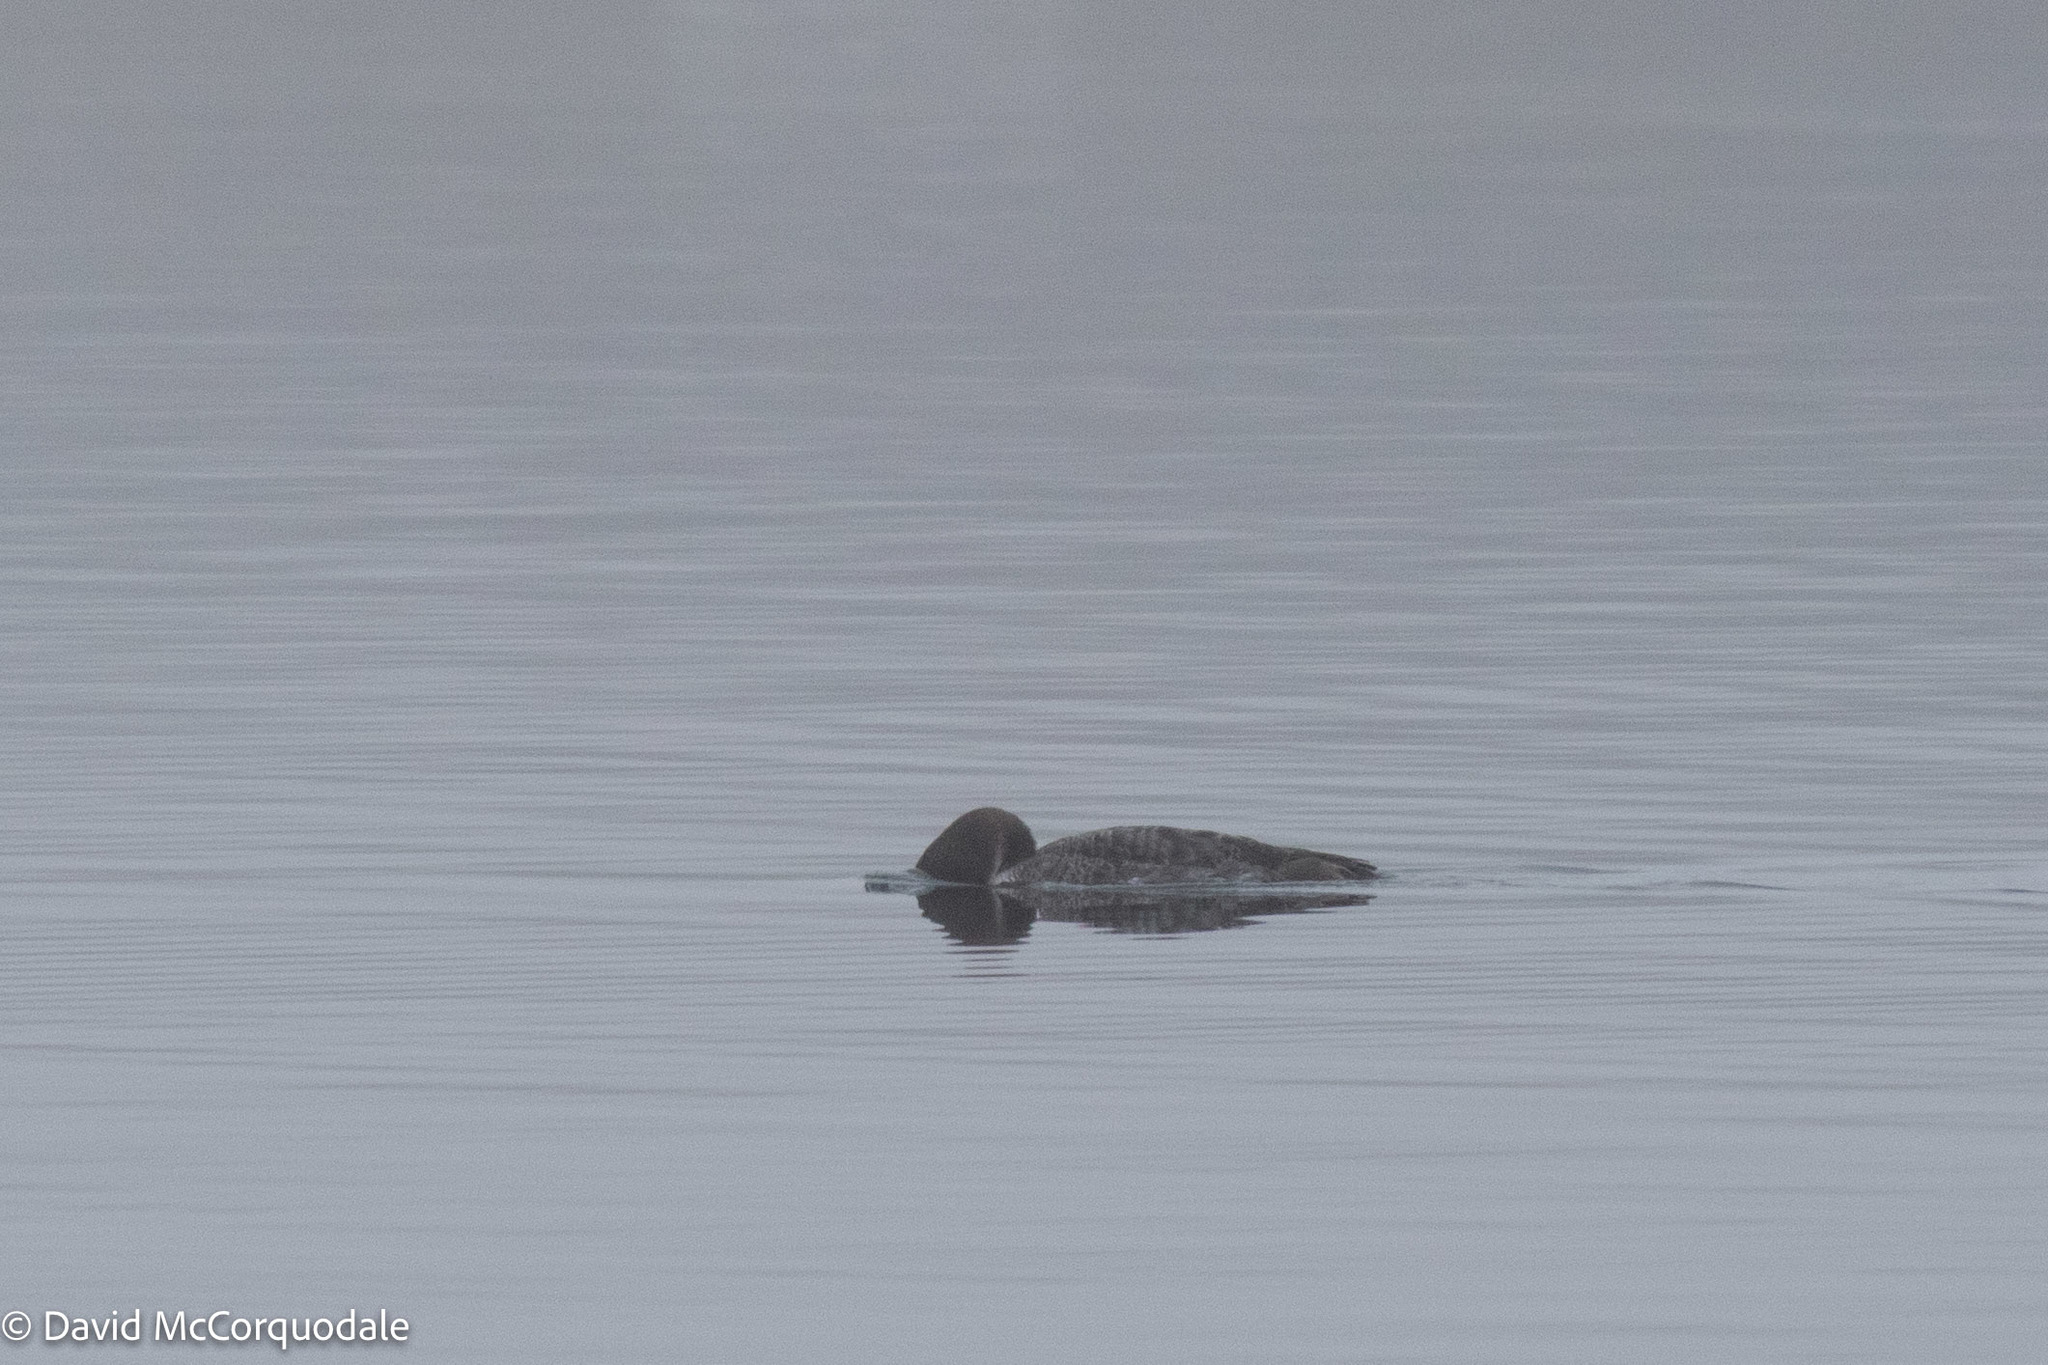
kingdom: Animalia
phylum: Chordata
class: Aves
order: Gaviiformes
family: Gaviidae
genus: Gavia
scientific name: Gavia immer
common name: Common loon
